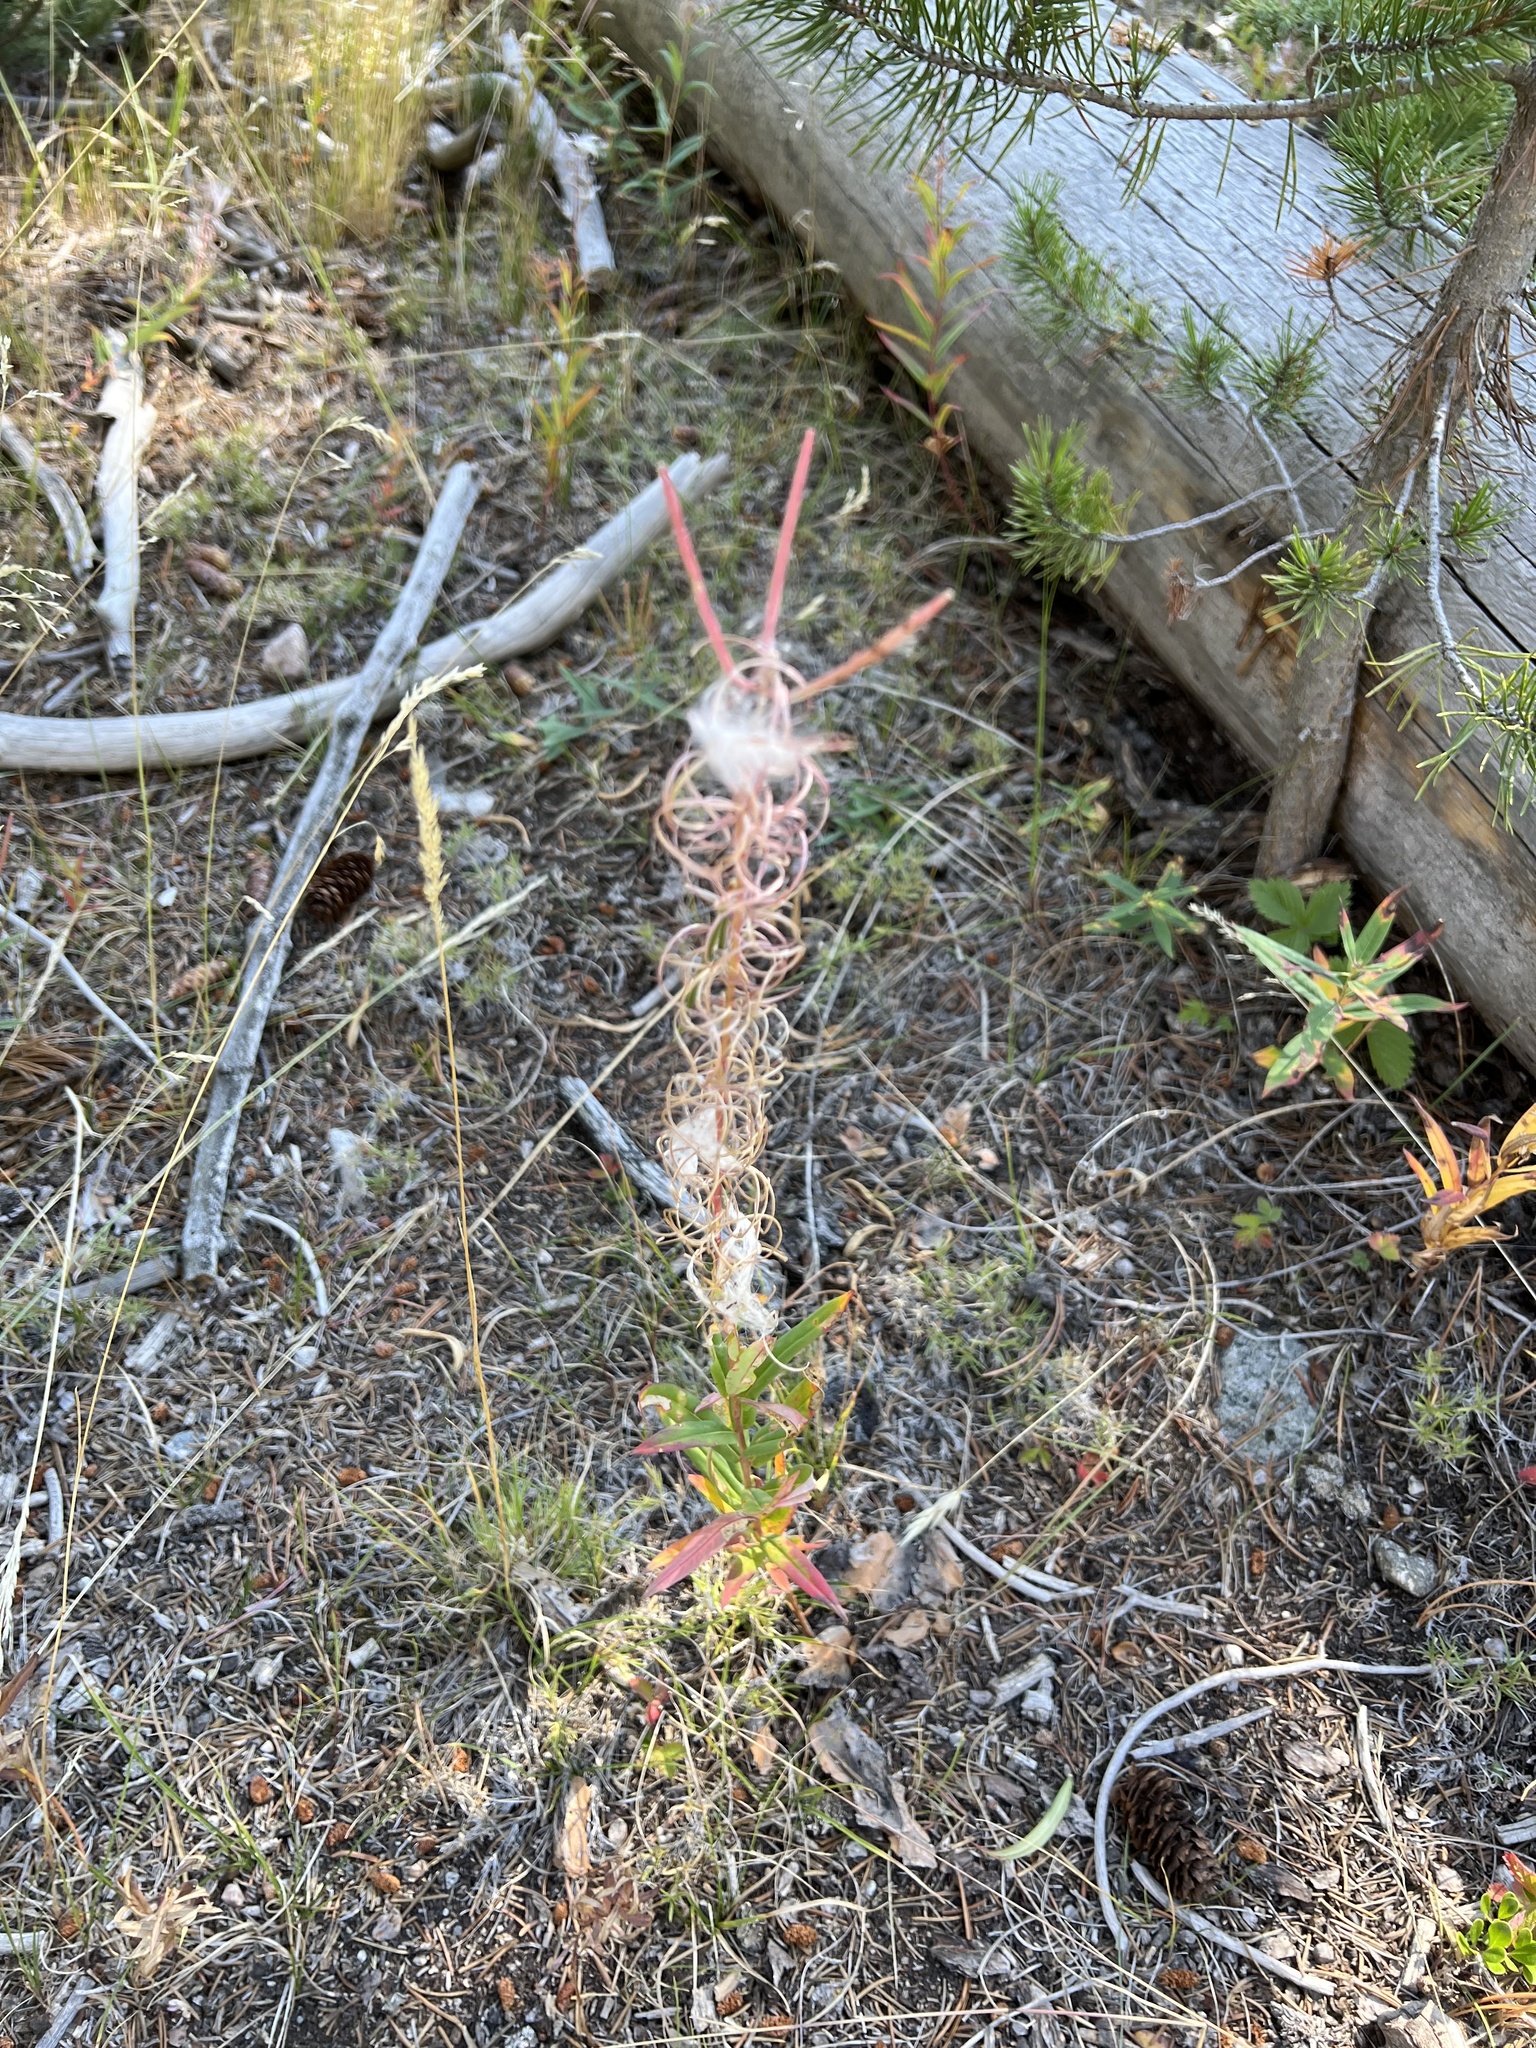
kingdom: Plantae
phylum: Tracheophyta
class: Magnoliopsida
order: Myrtales
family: Onagraceae
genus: Chamaenerion
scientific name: Chamaenerion angustifolium
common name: Fireweed
